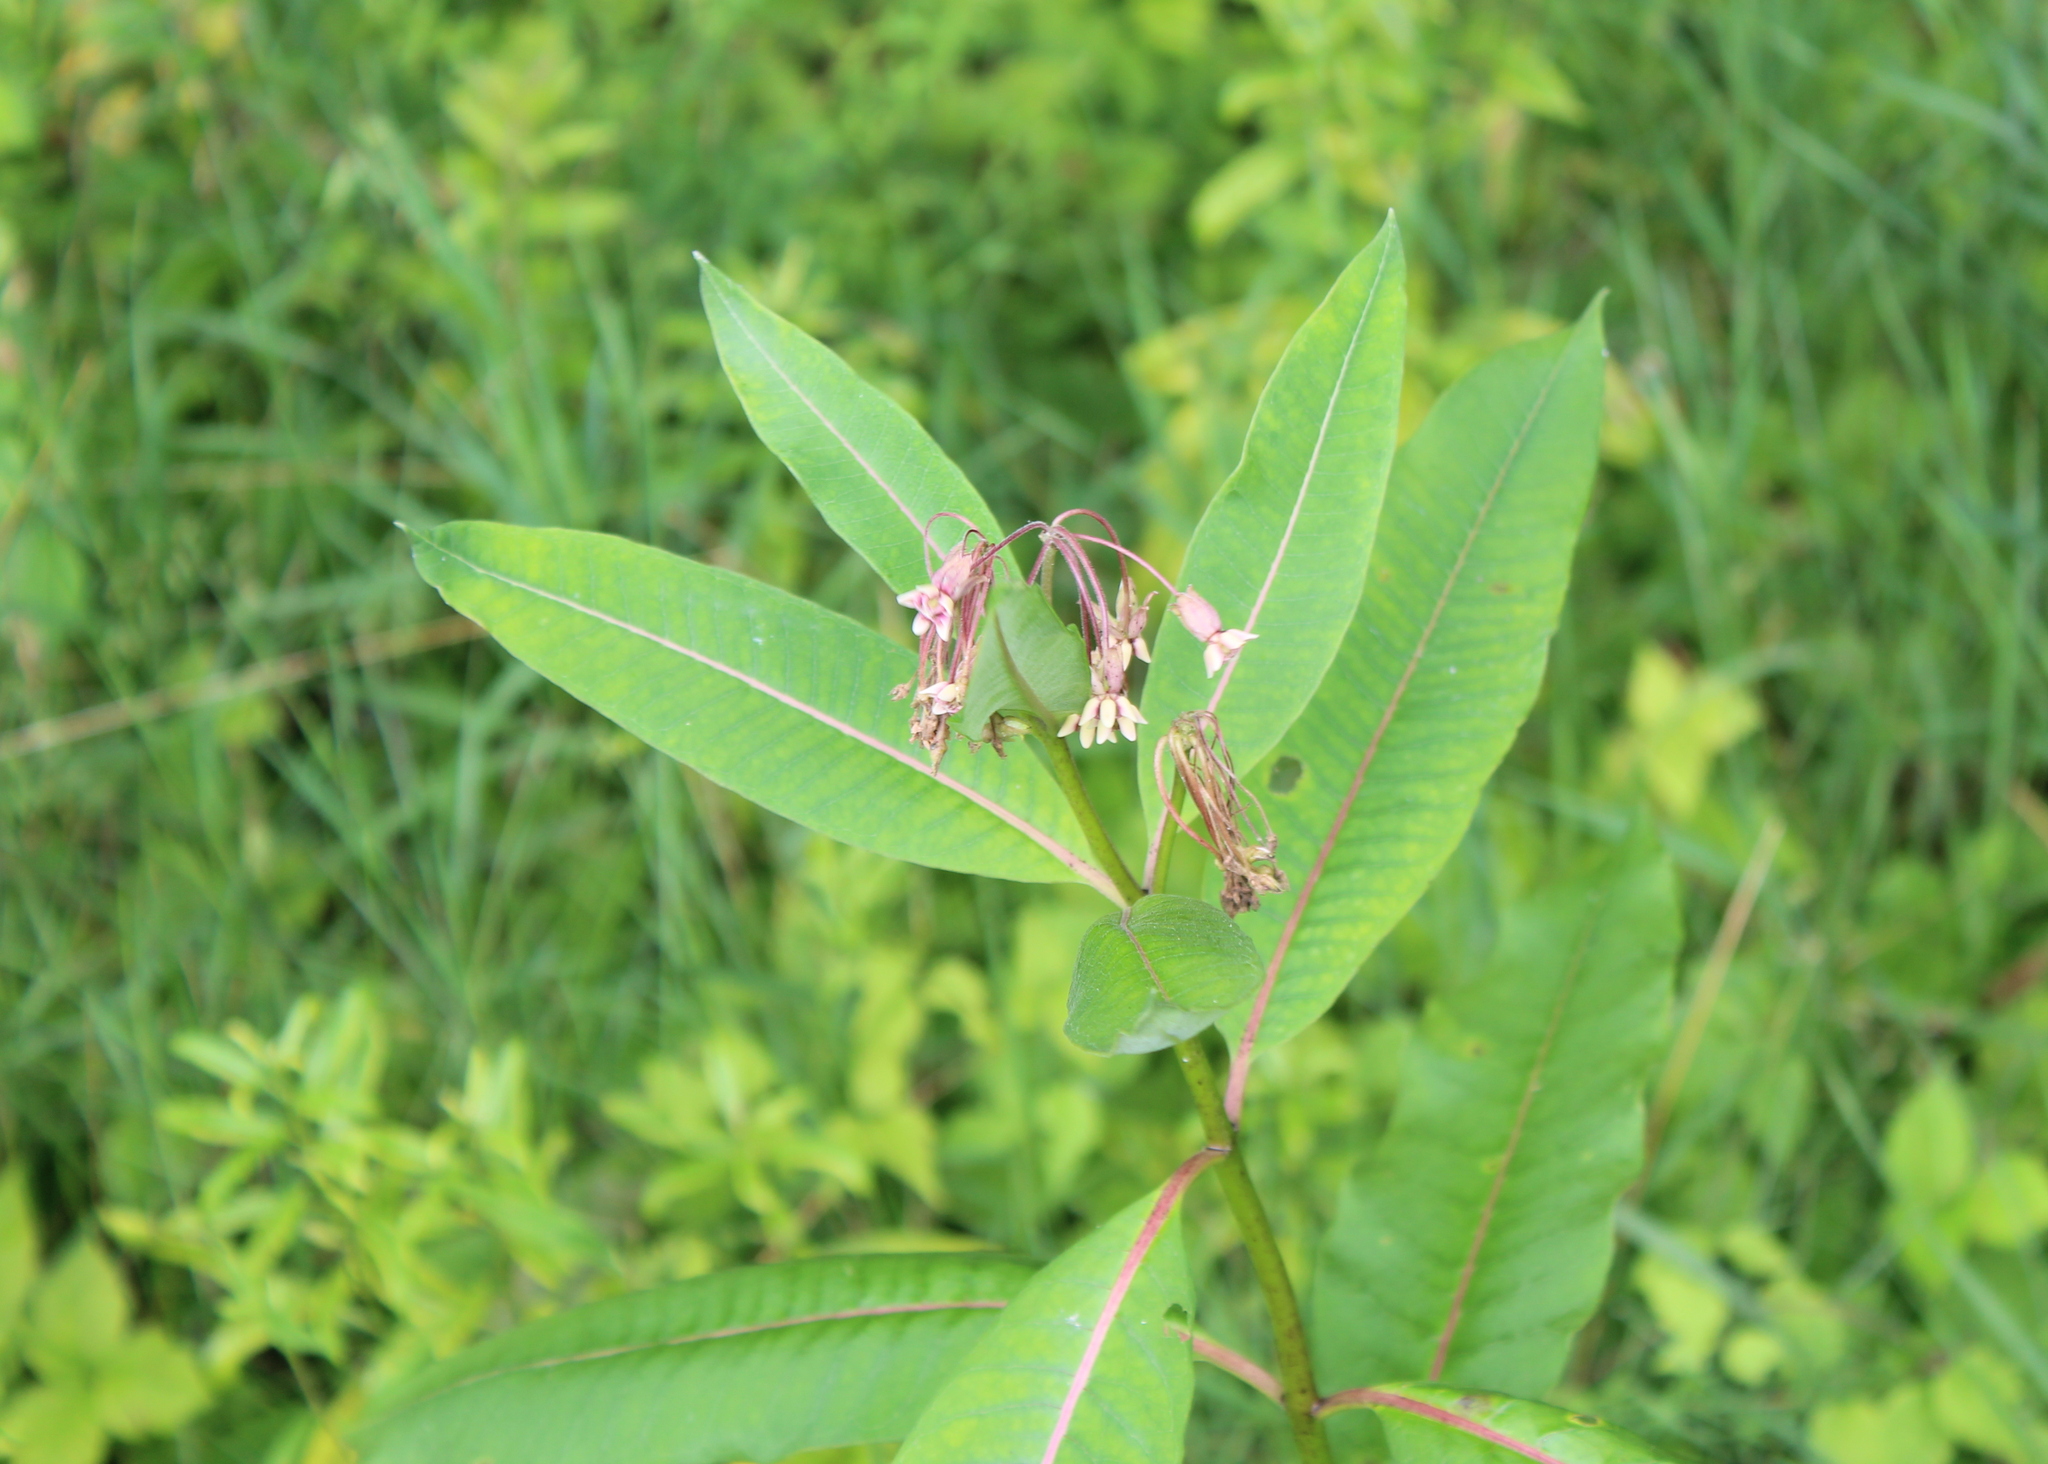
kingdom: Plantae
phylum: Tracheophyta
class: Magnoliopsida
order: Gentianales
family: Apocynaceae
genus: Asclepias
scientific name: Asclepias syriaca
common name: Common milkweed
